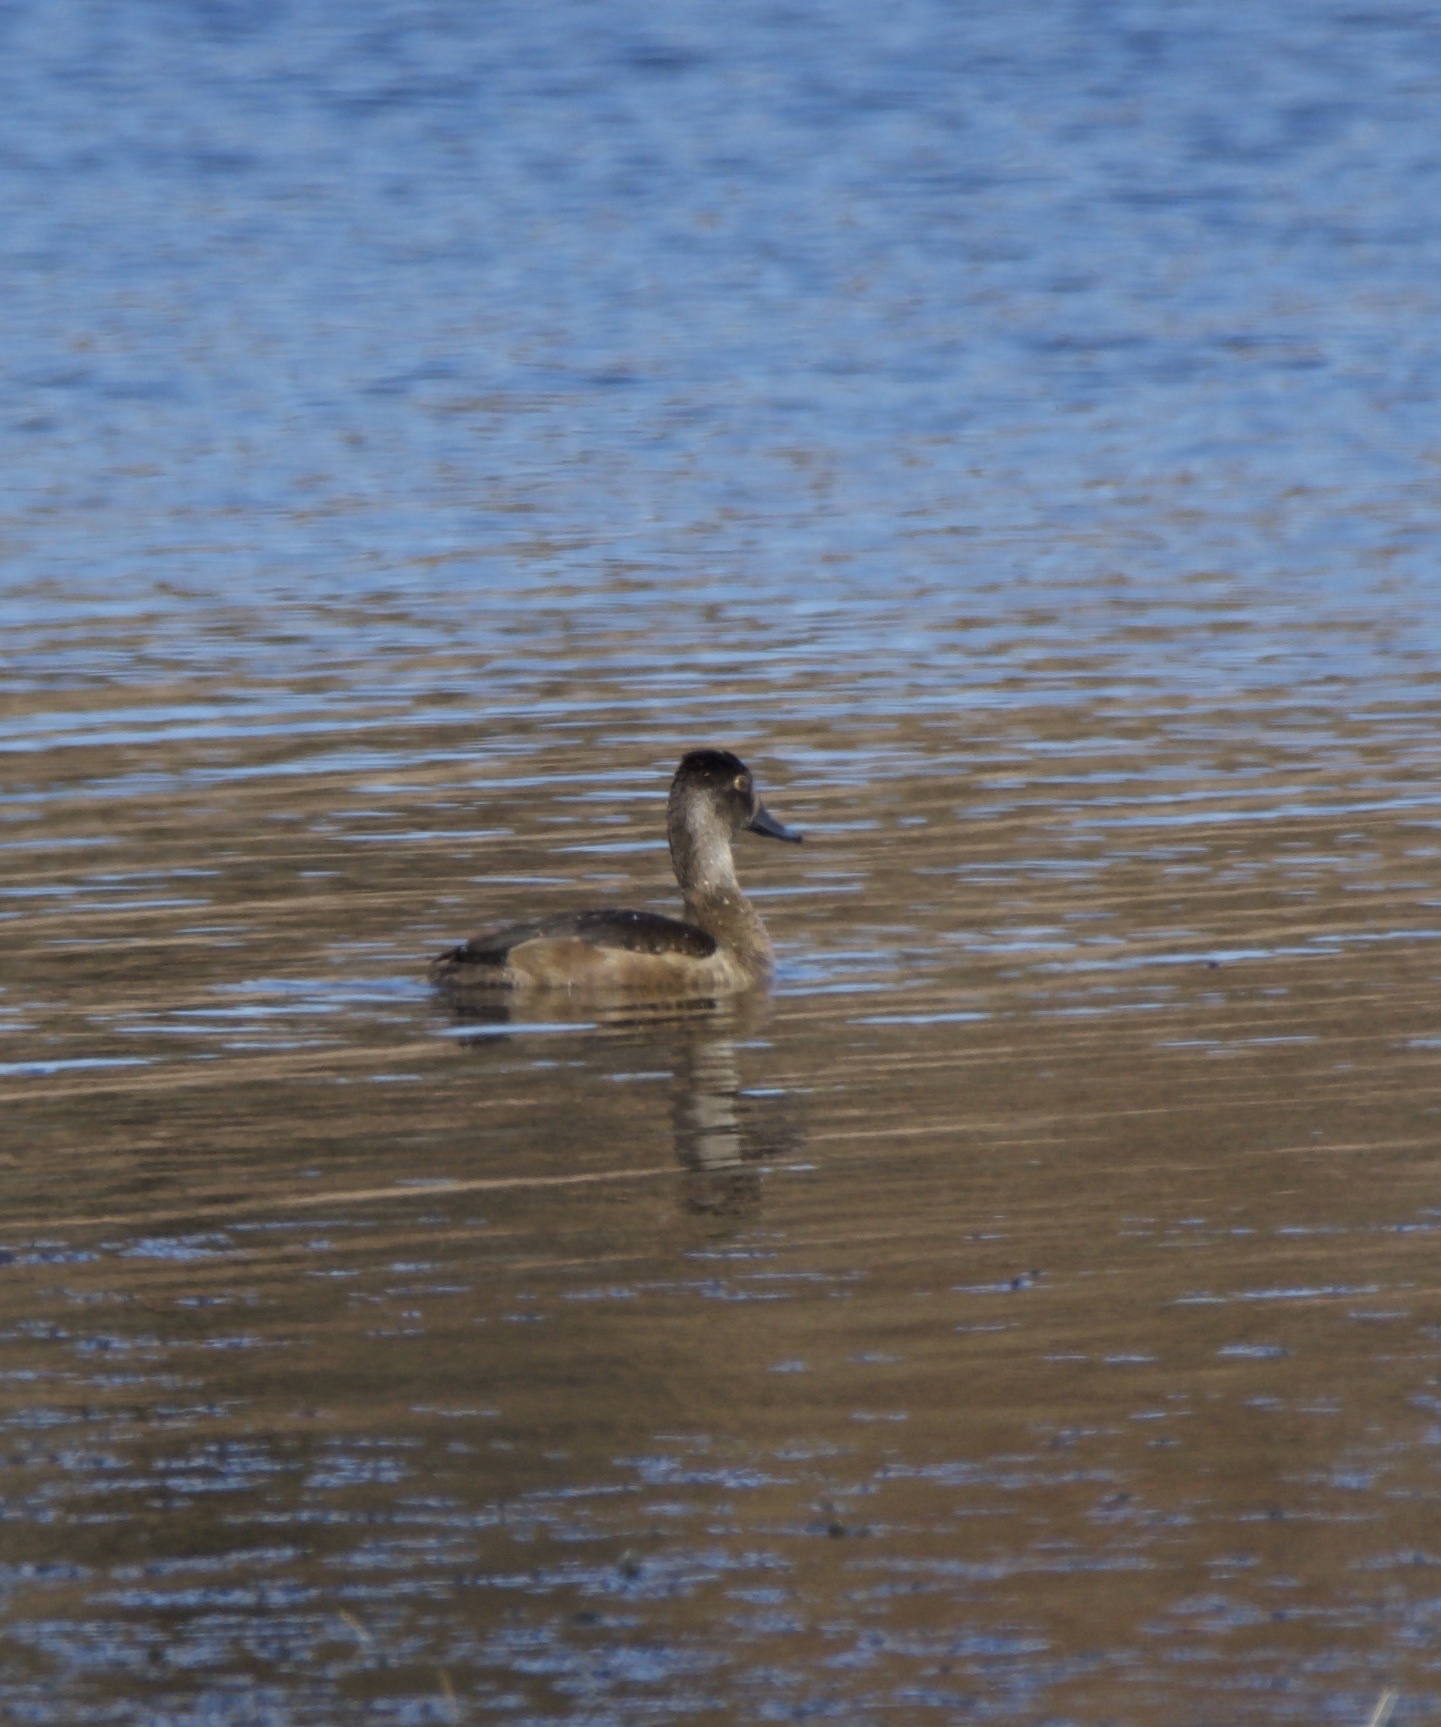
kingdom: Animalia
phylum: Chordata
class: Aves
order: Anseriformes
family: Anatidae
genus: Aythya
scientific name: Aythya collaris
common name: Ring-necked duck
